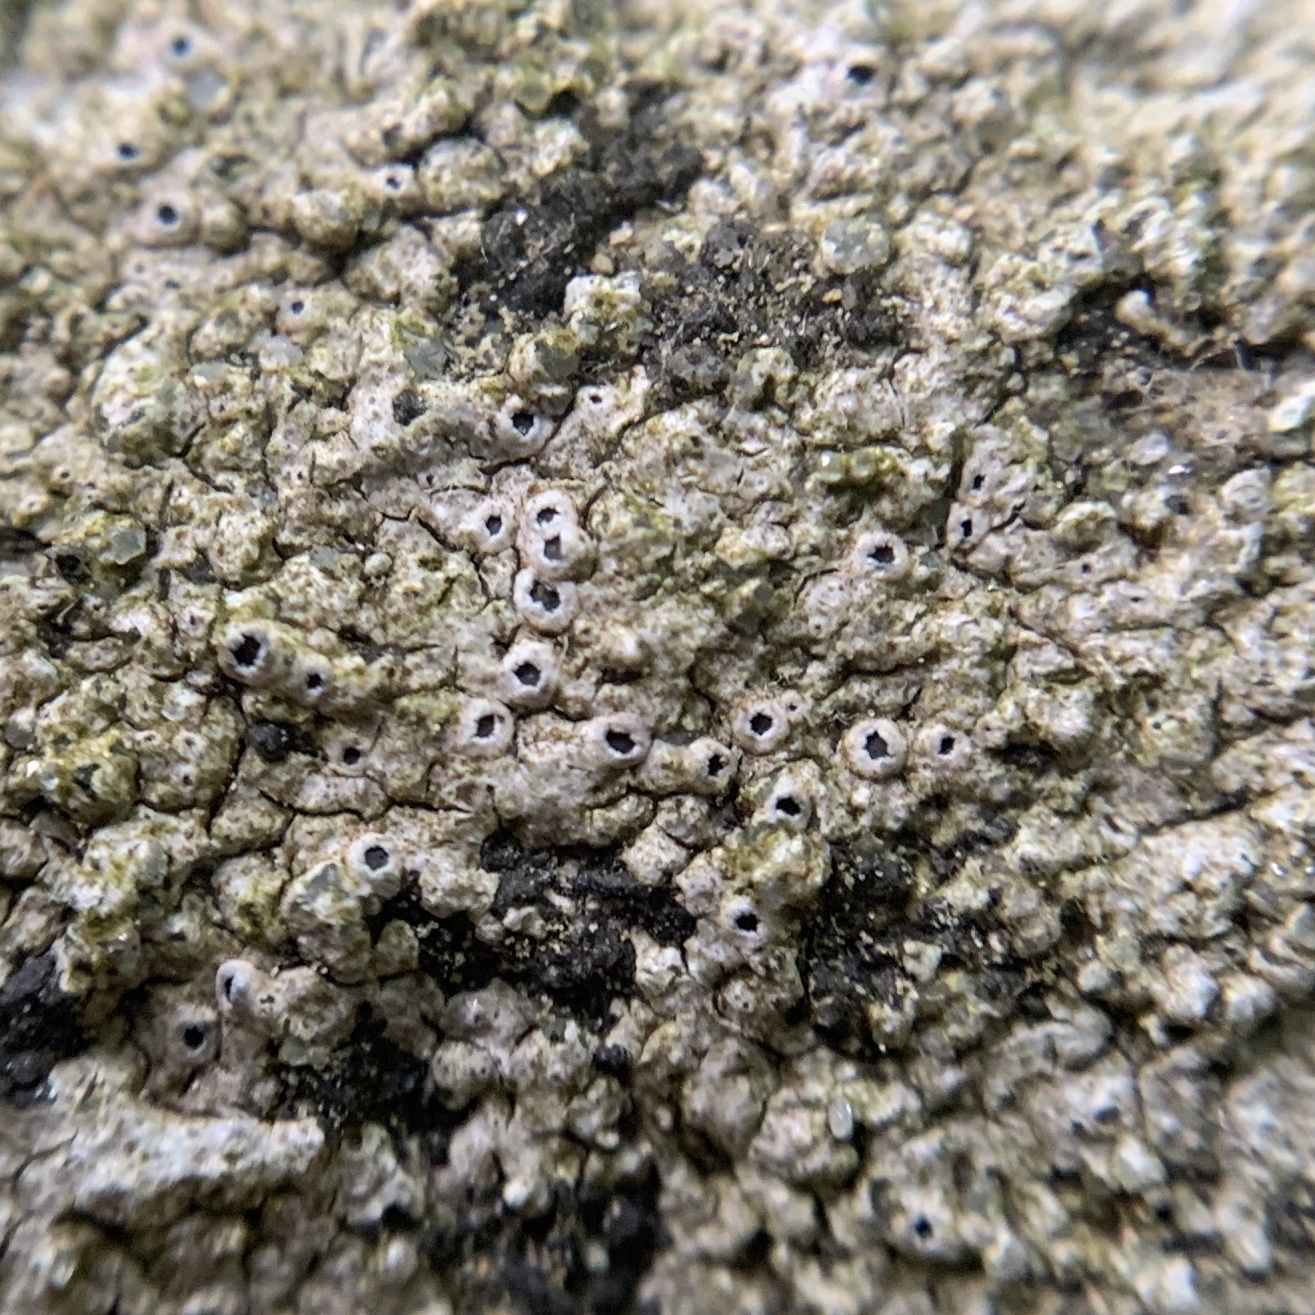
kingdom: Fungi
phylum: Ascomycota
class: Lecanoromycetes
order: Pertusariales
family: Megasporaceae
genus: Aspicilia
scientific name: Aspicilia laevata
